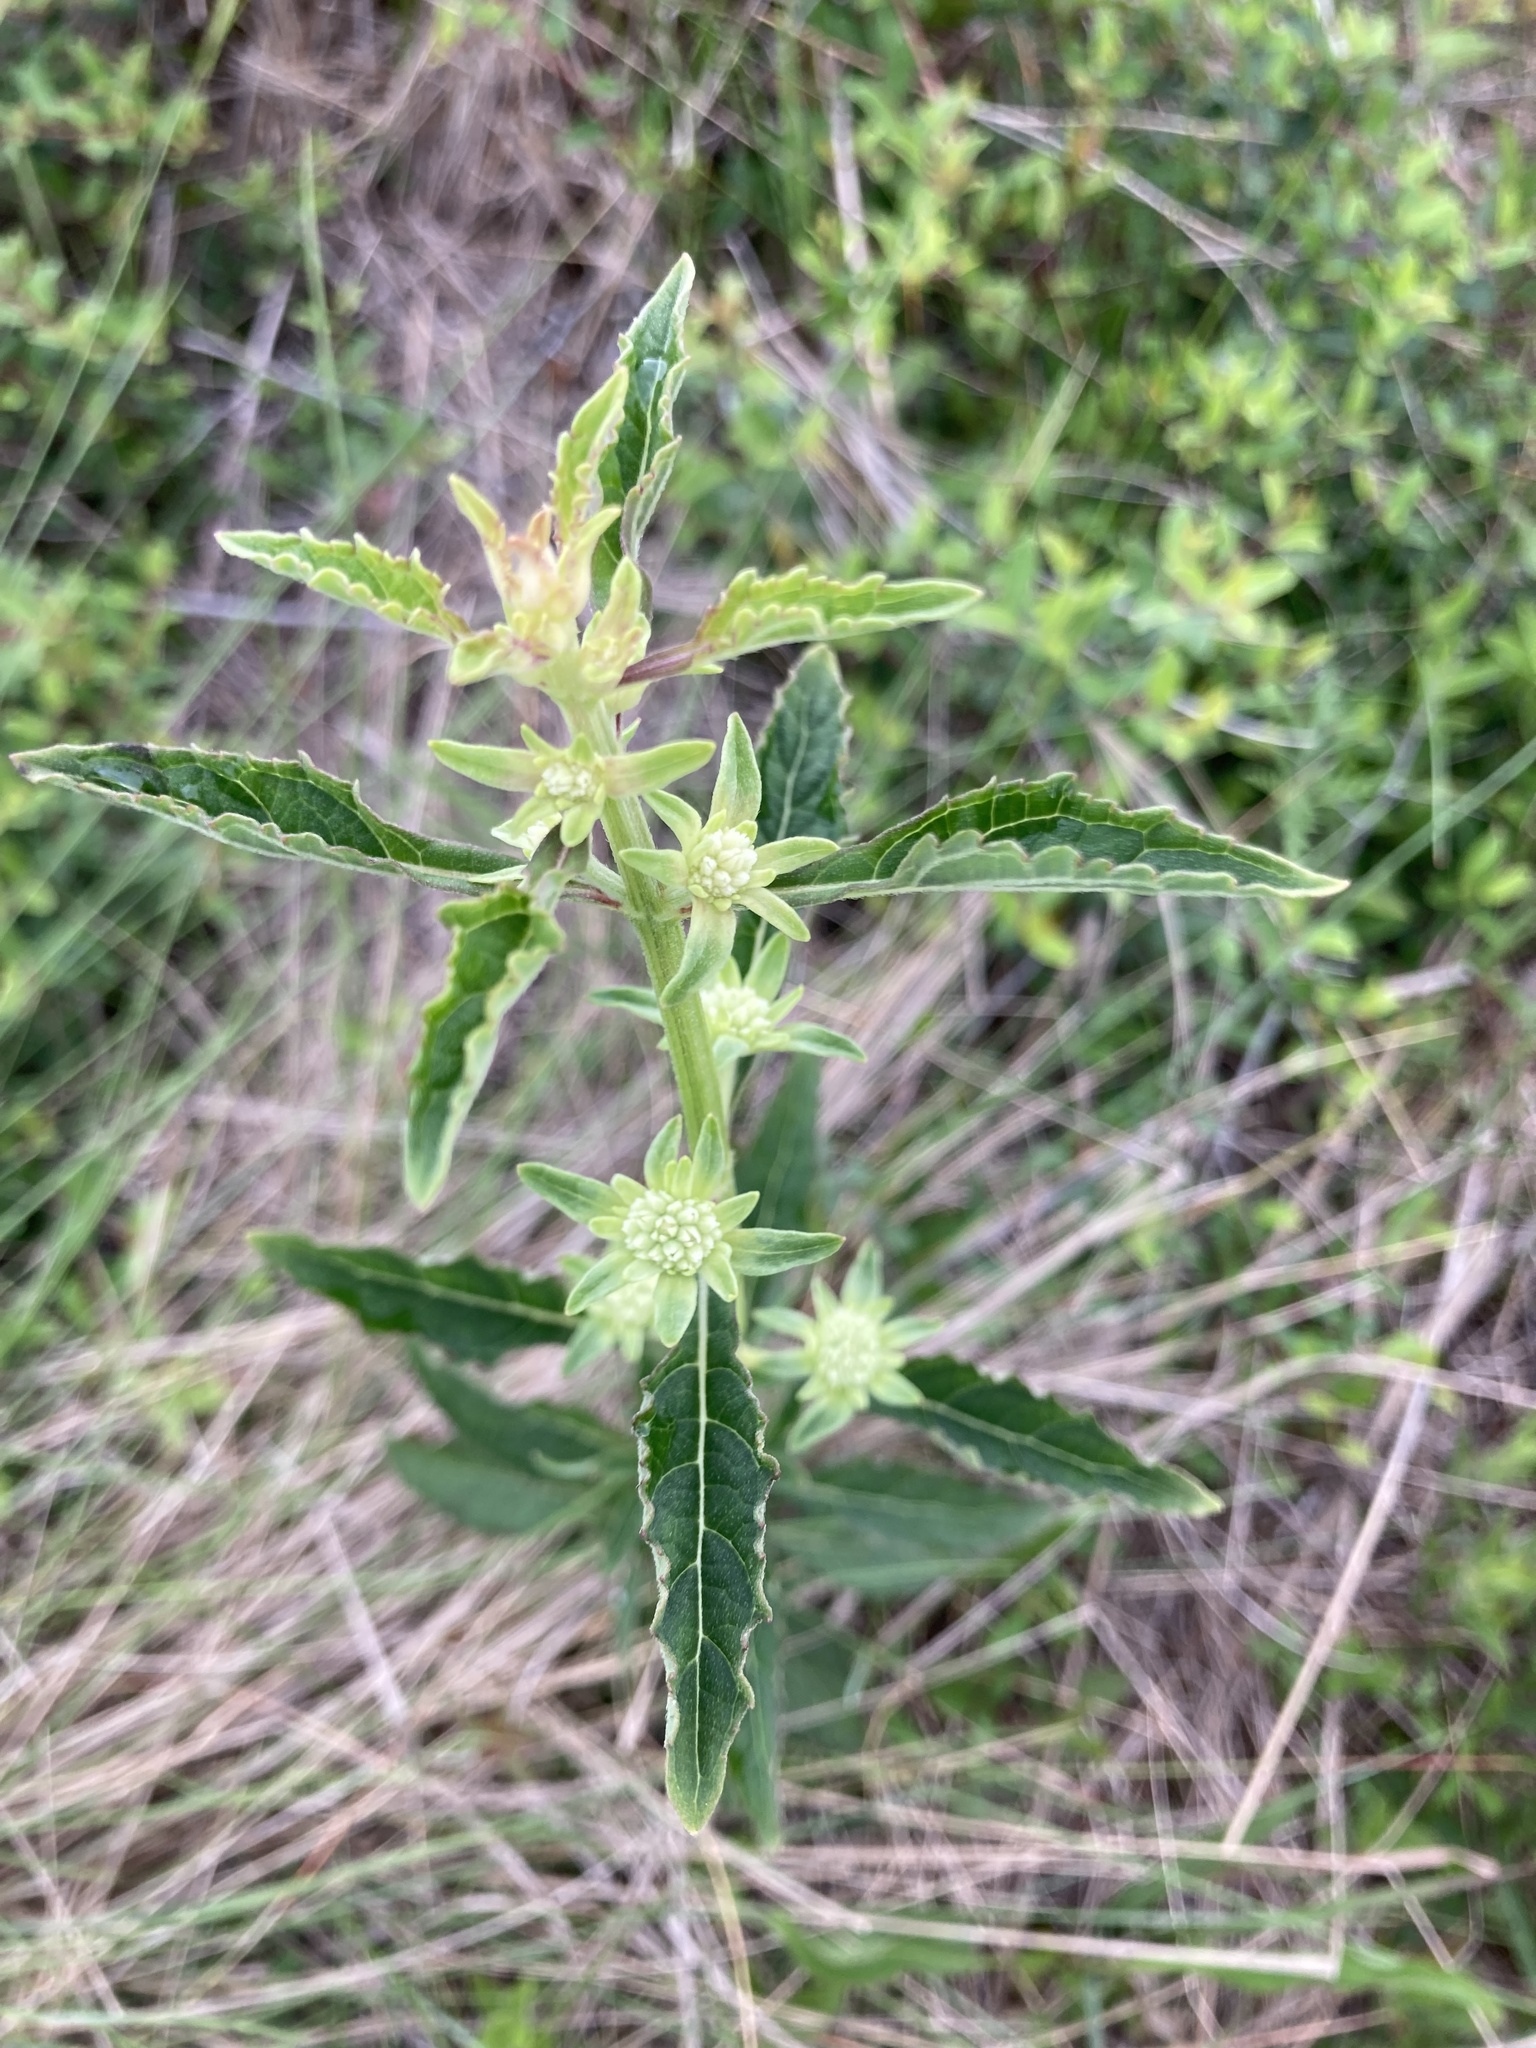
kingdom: Plantae
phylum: Tracheophyta
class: Magnoliopsida
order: Lamiales
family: Lamiaceae
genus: Hyptis
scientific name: Hyptis alata
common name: Cluster bush-mint
